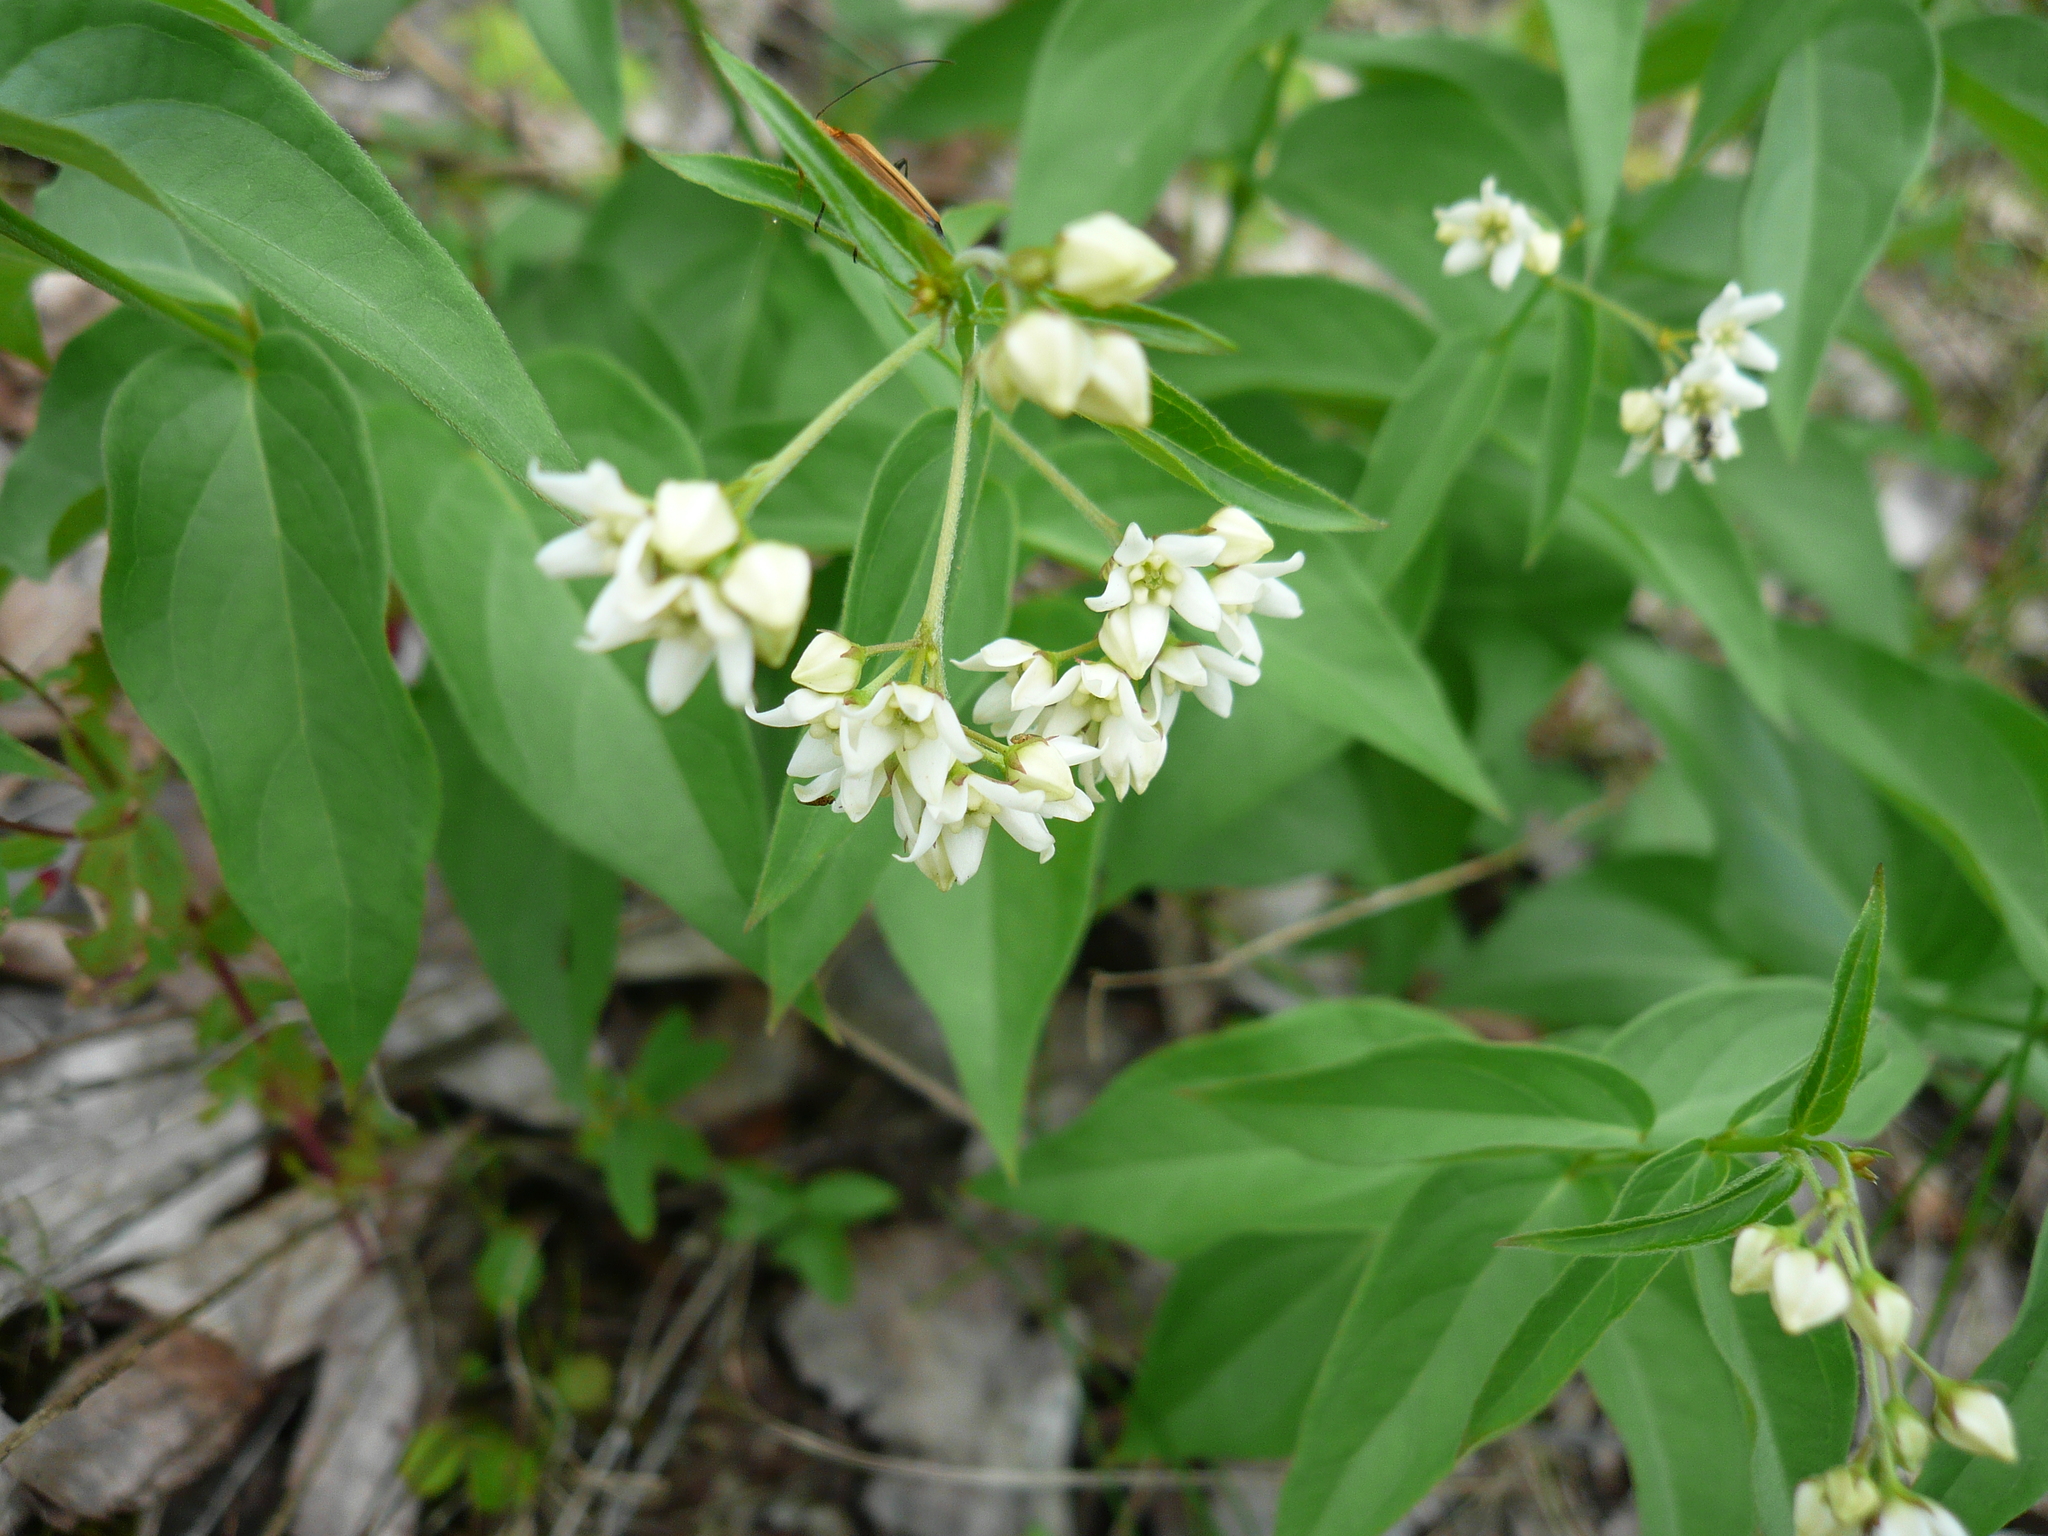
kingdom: Plantae
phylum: Tracheophyta
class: Magnoliopsida
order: Gentianales
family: Apocynaceae
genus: Vincetoxicum
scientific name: Vincetoxicum hirundinaria
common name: White swallowwort
